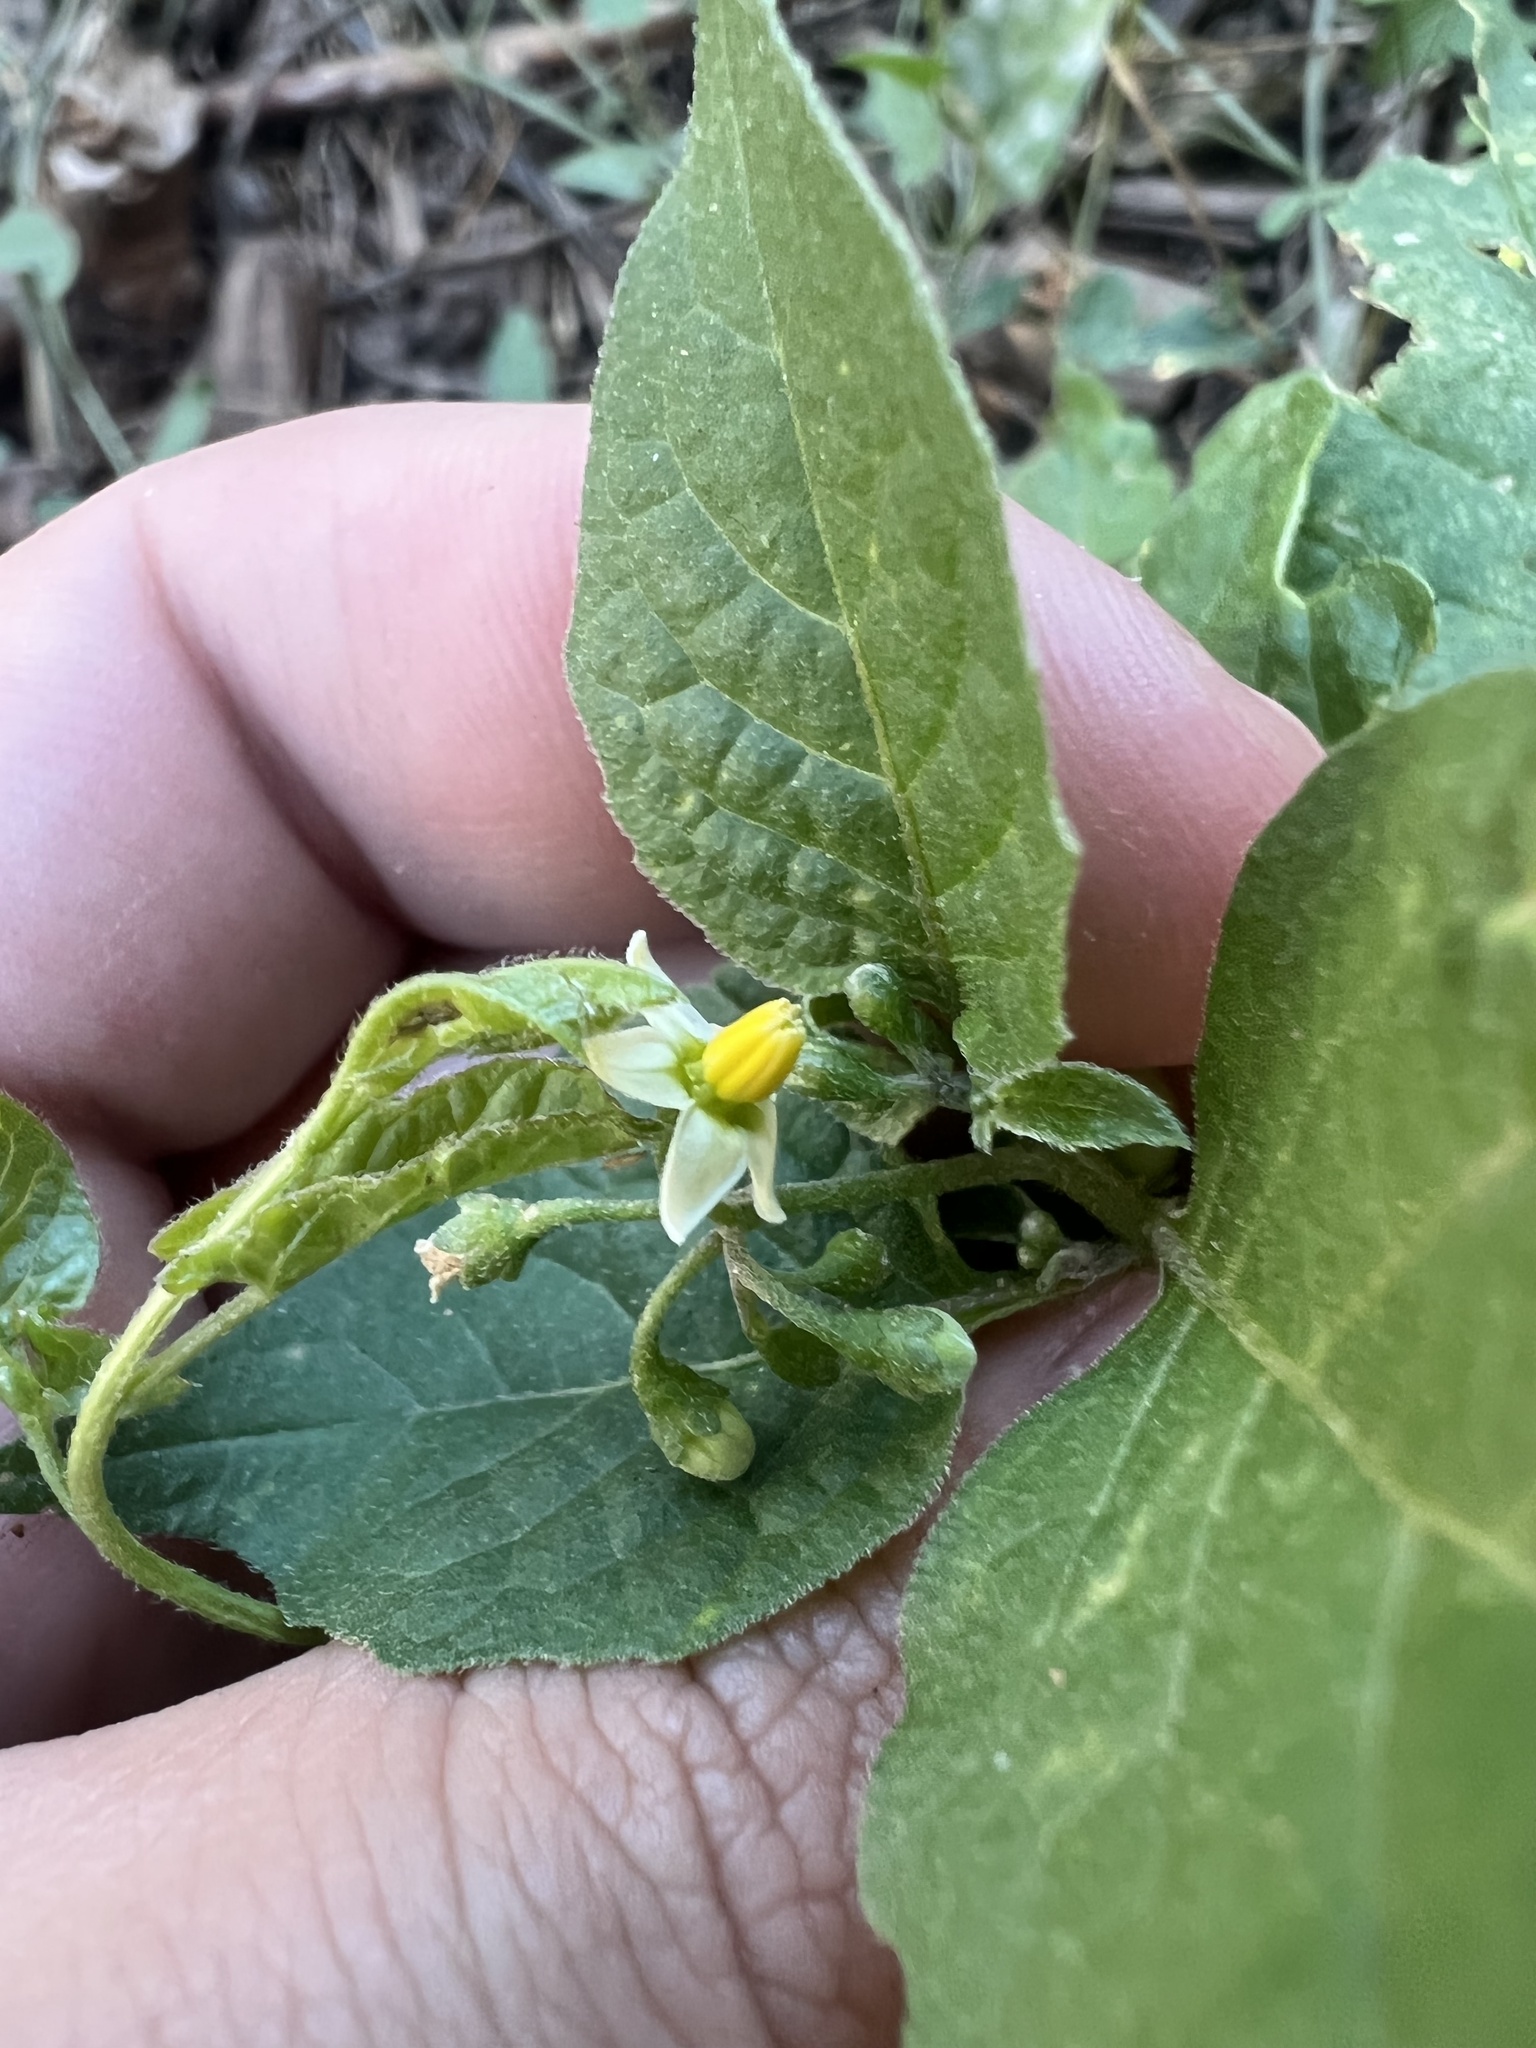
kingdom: Plantae
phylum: Tracheophyta
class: Magnoliopsida
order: Solanales
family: Solanaceae
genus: Solanum
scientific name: Solanum nigrum
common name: Black nightshade
